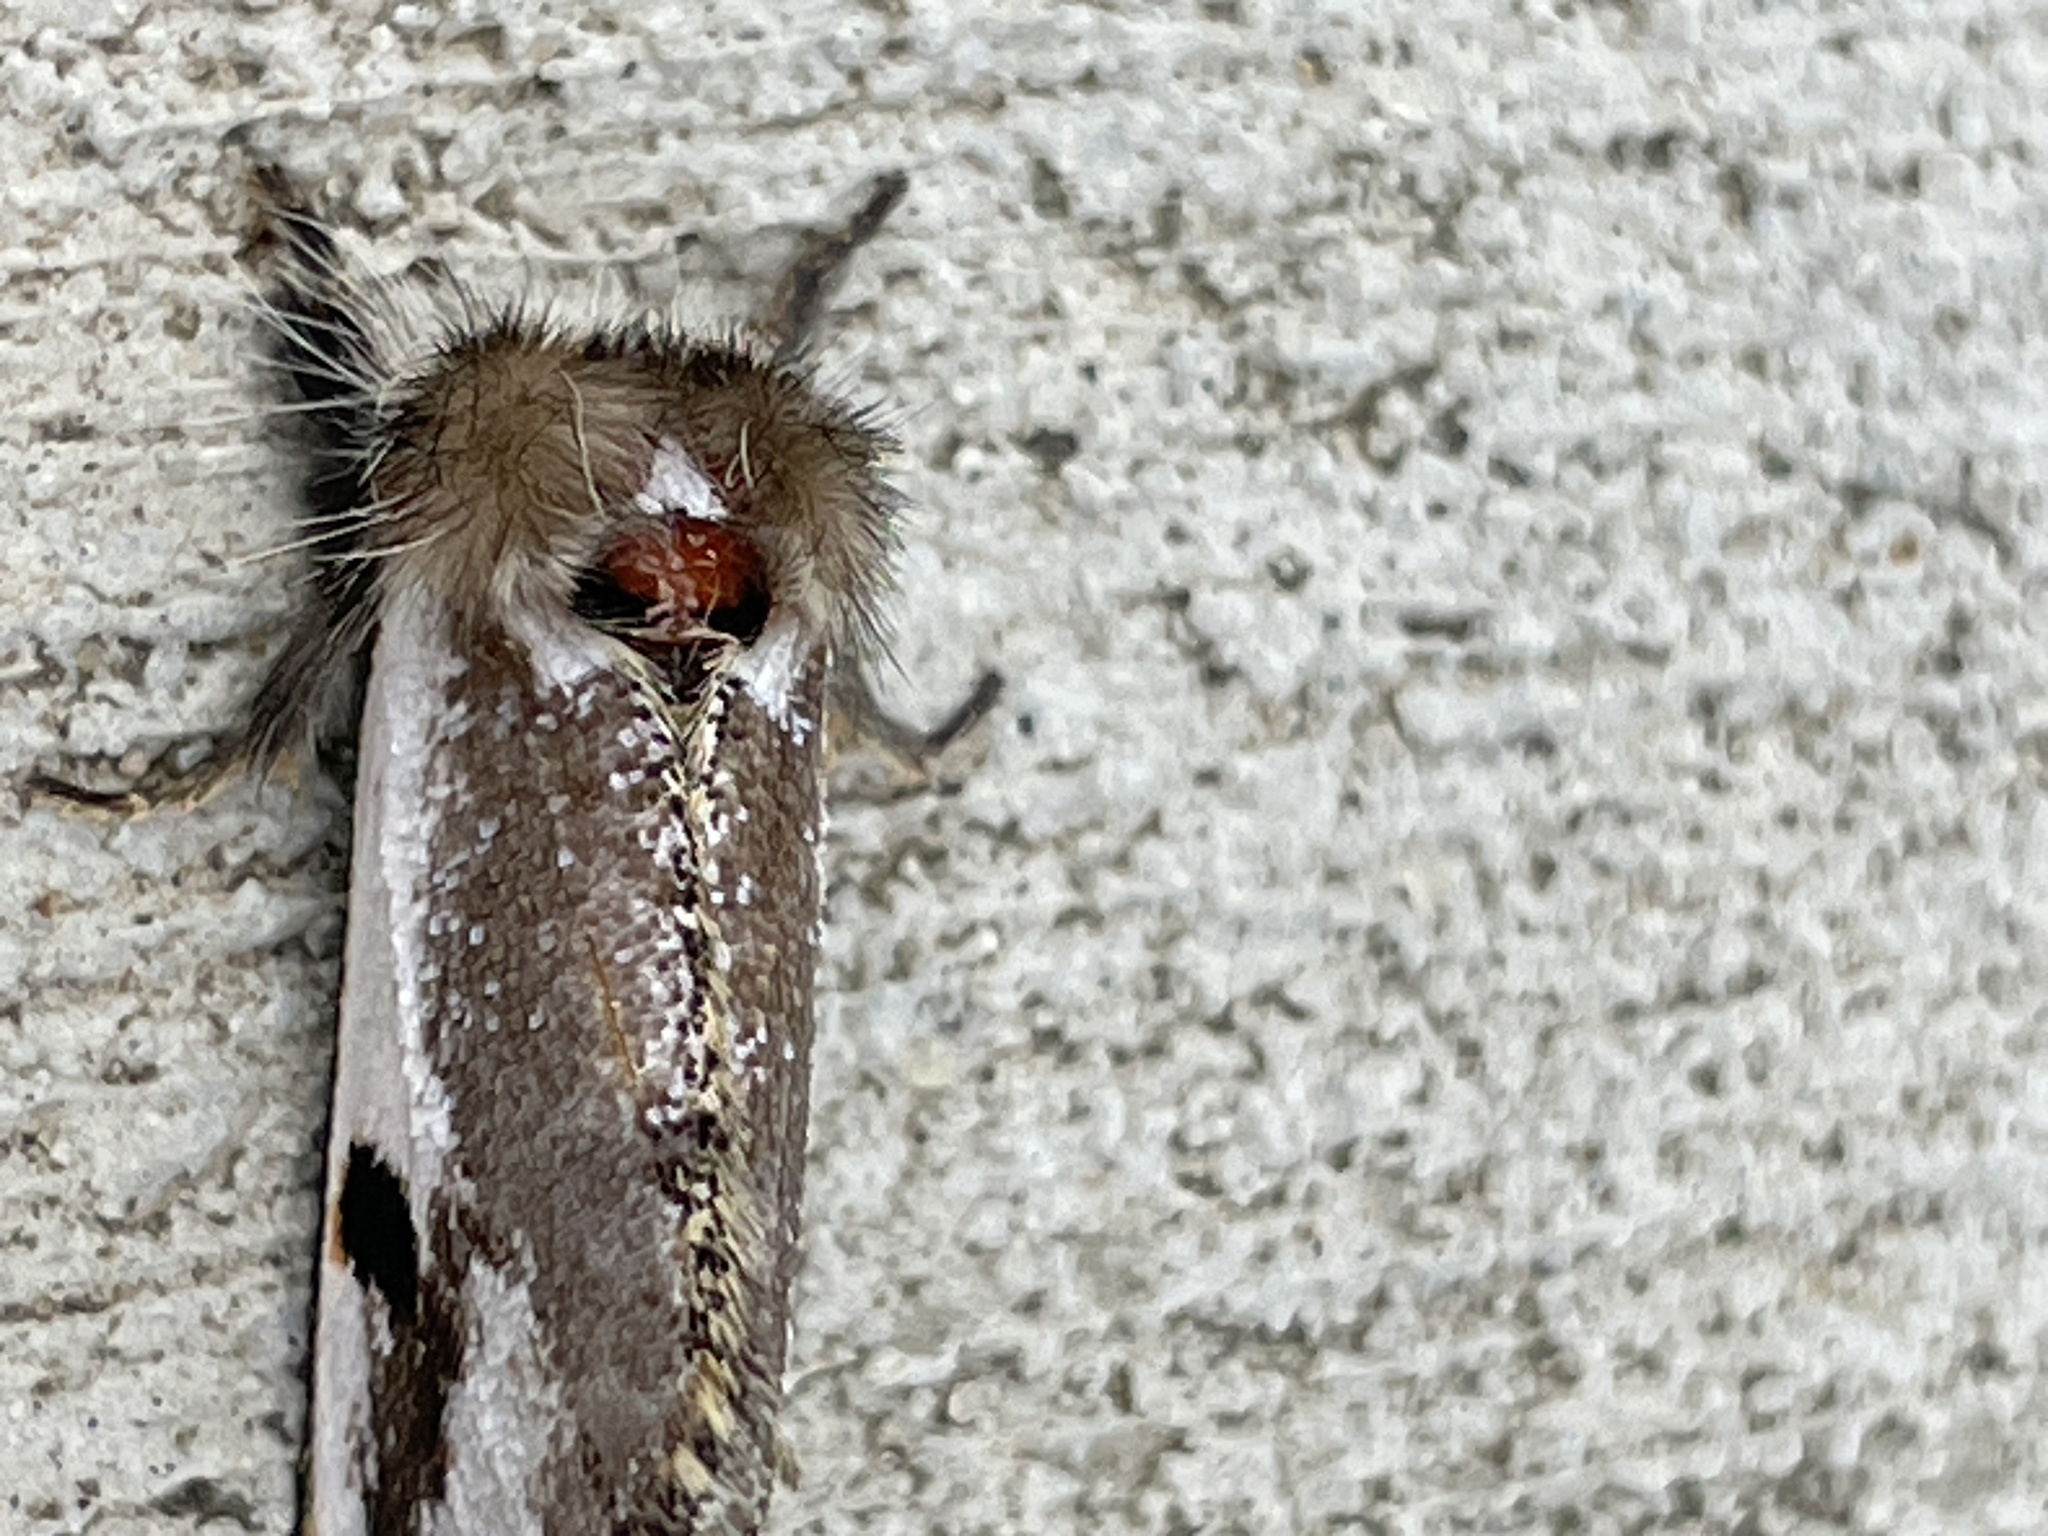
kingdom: Animalia
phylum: Arthropoda
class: Insecta
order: Lepidoptera
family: Notodontidae
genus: Epicoma
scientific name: Epicoma melanospila
